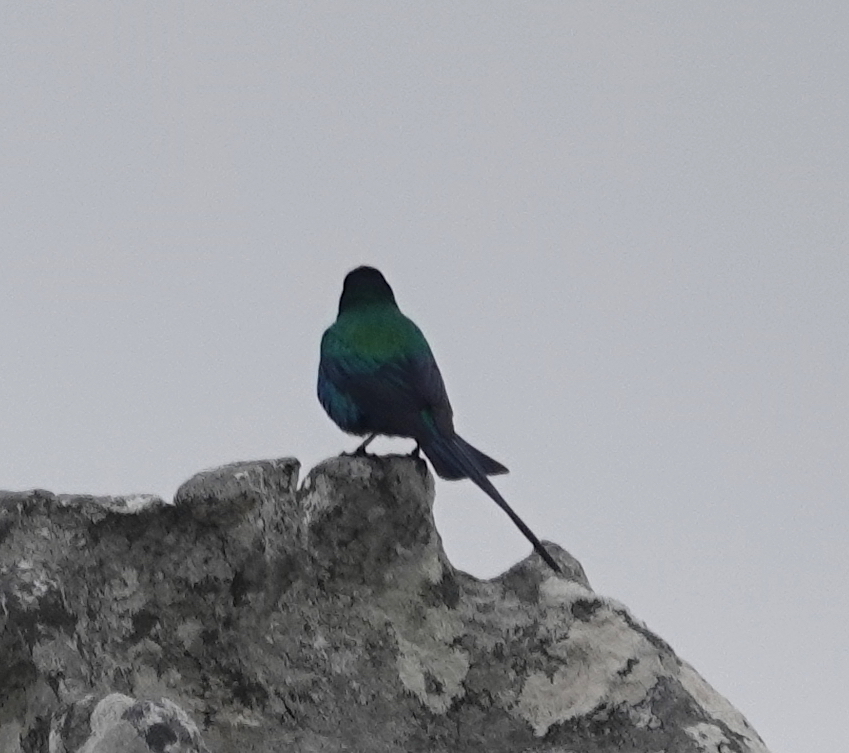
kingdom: Animalia
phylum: Chordata
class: Aves
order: Passeriformes
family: Nectariniidae
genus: Nectarinia
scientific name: Nectarinia famosa
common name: Malachite sunbird
